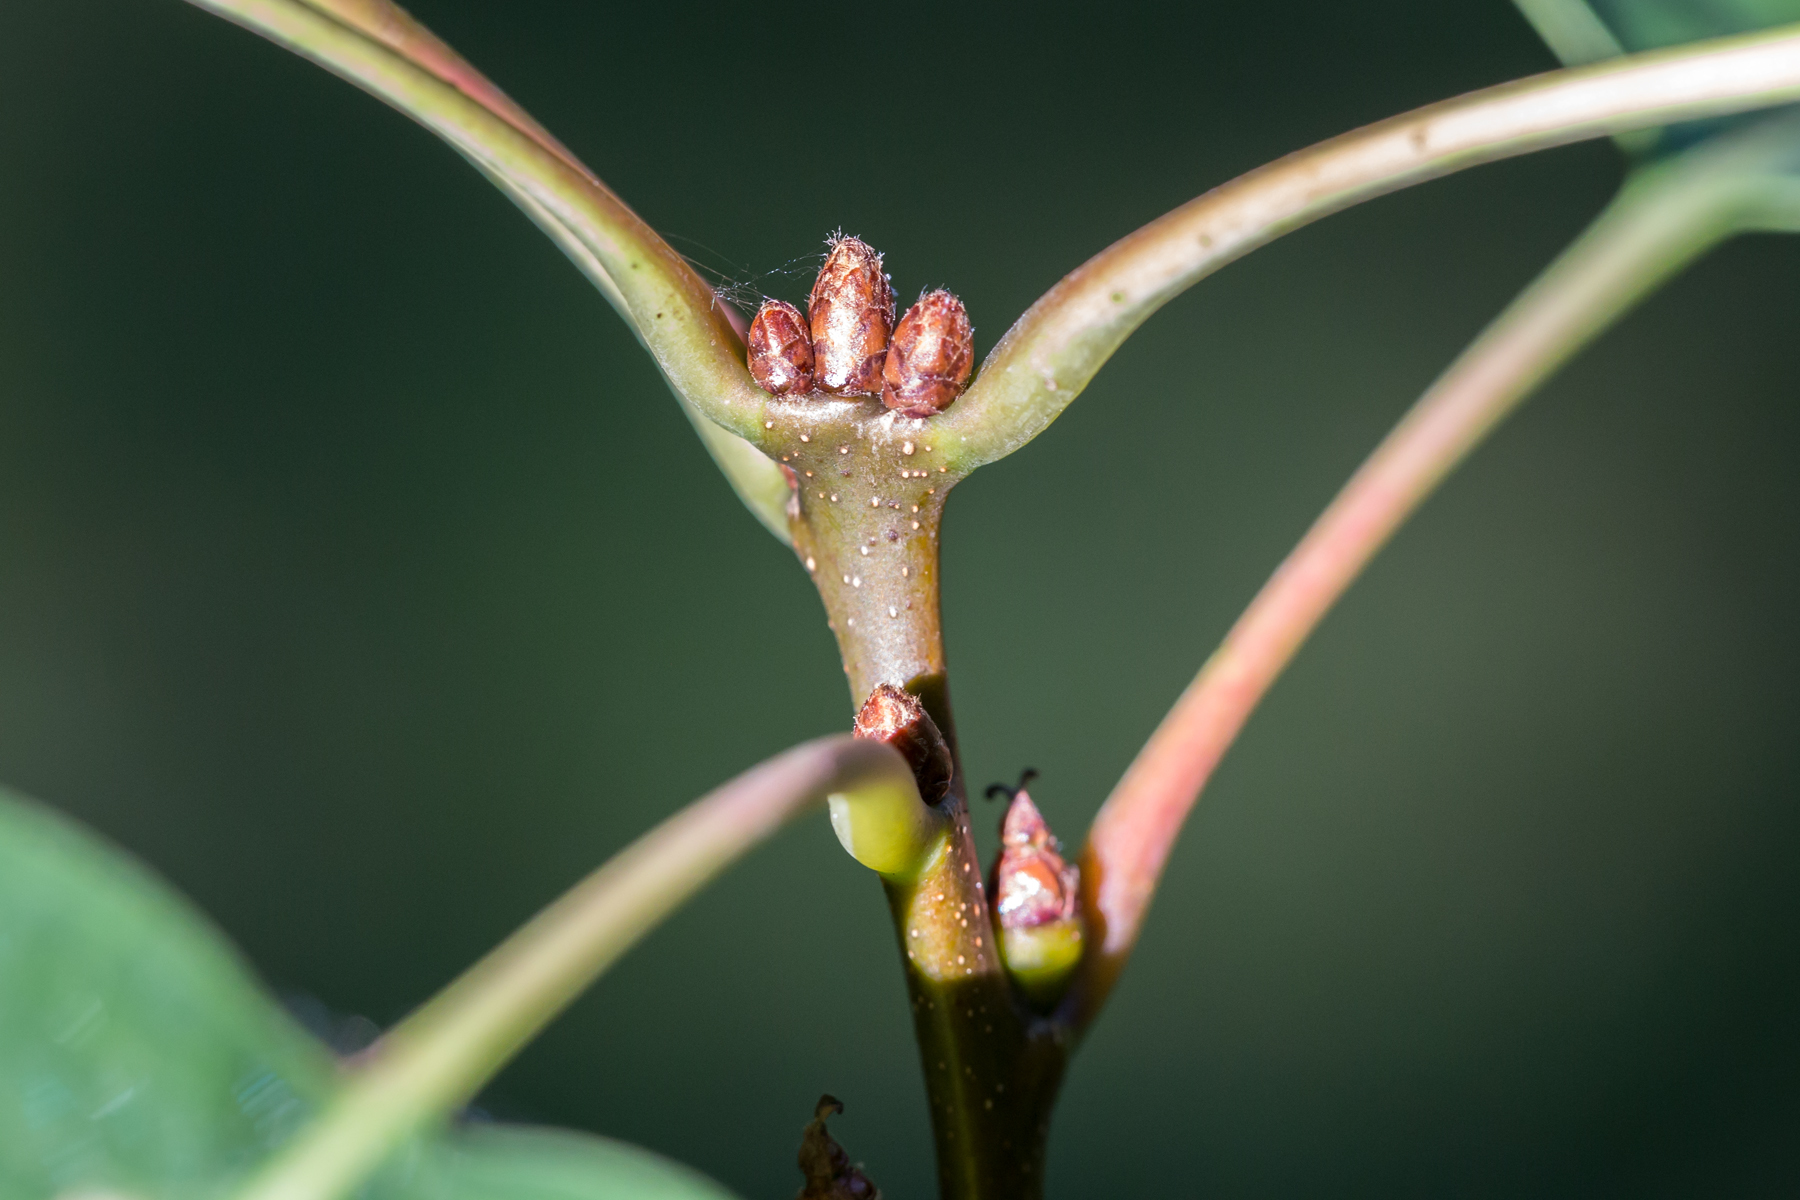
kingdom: Plantae
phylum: Tracheophyta
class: Magnoliopsida
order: Fagales
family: Fagaceae
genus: Quercus
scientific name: Quercus rubra
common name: Red oak
